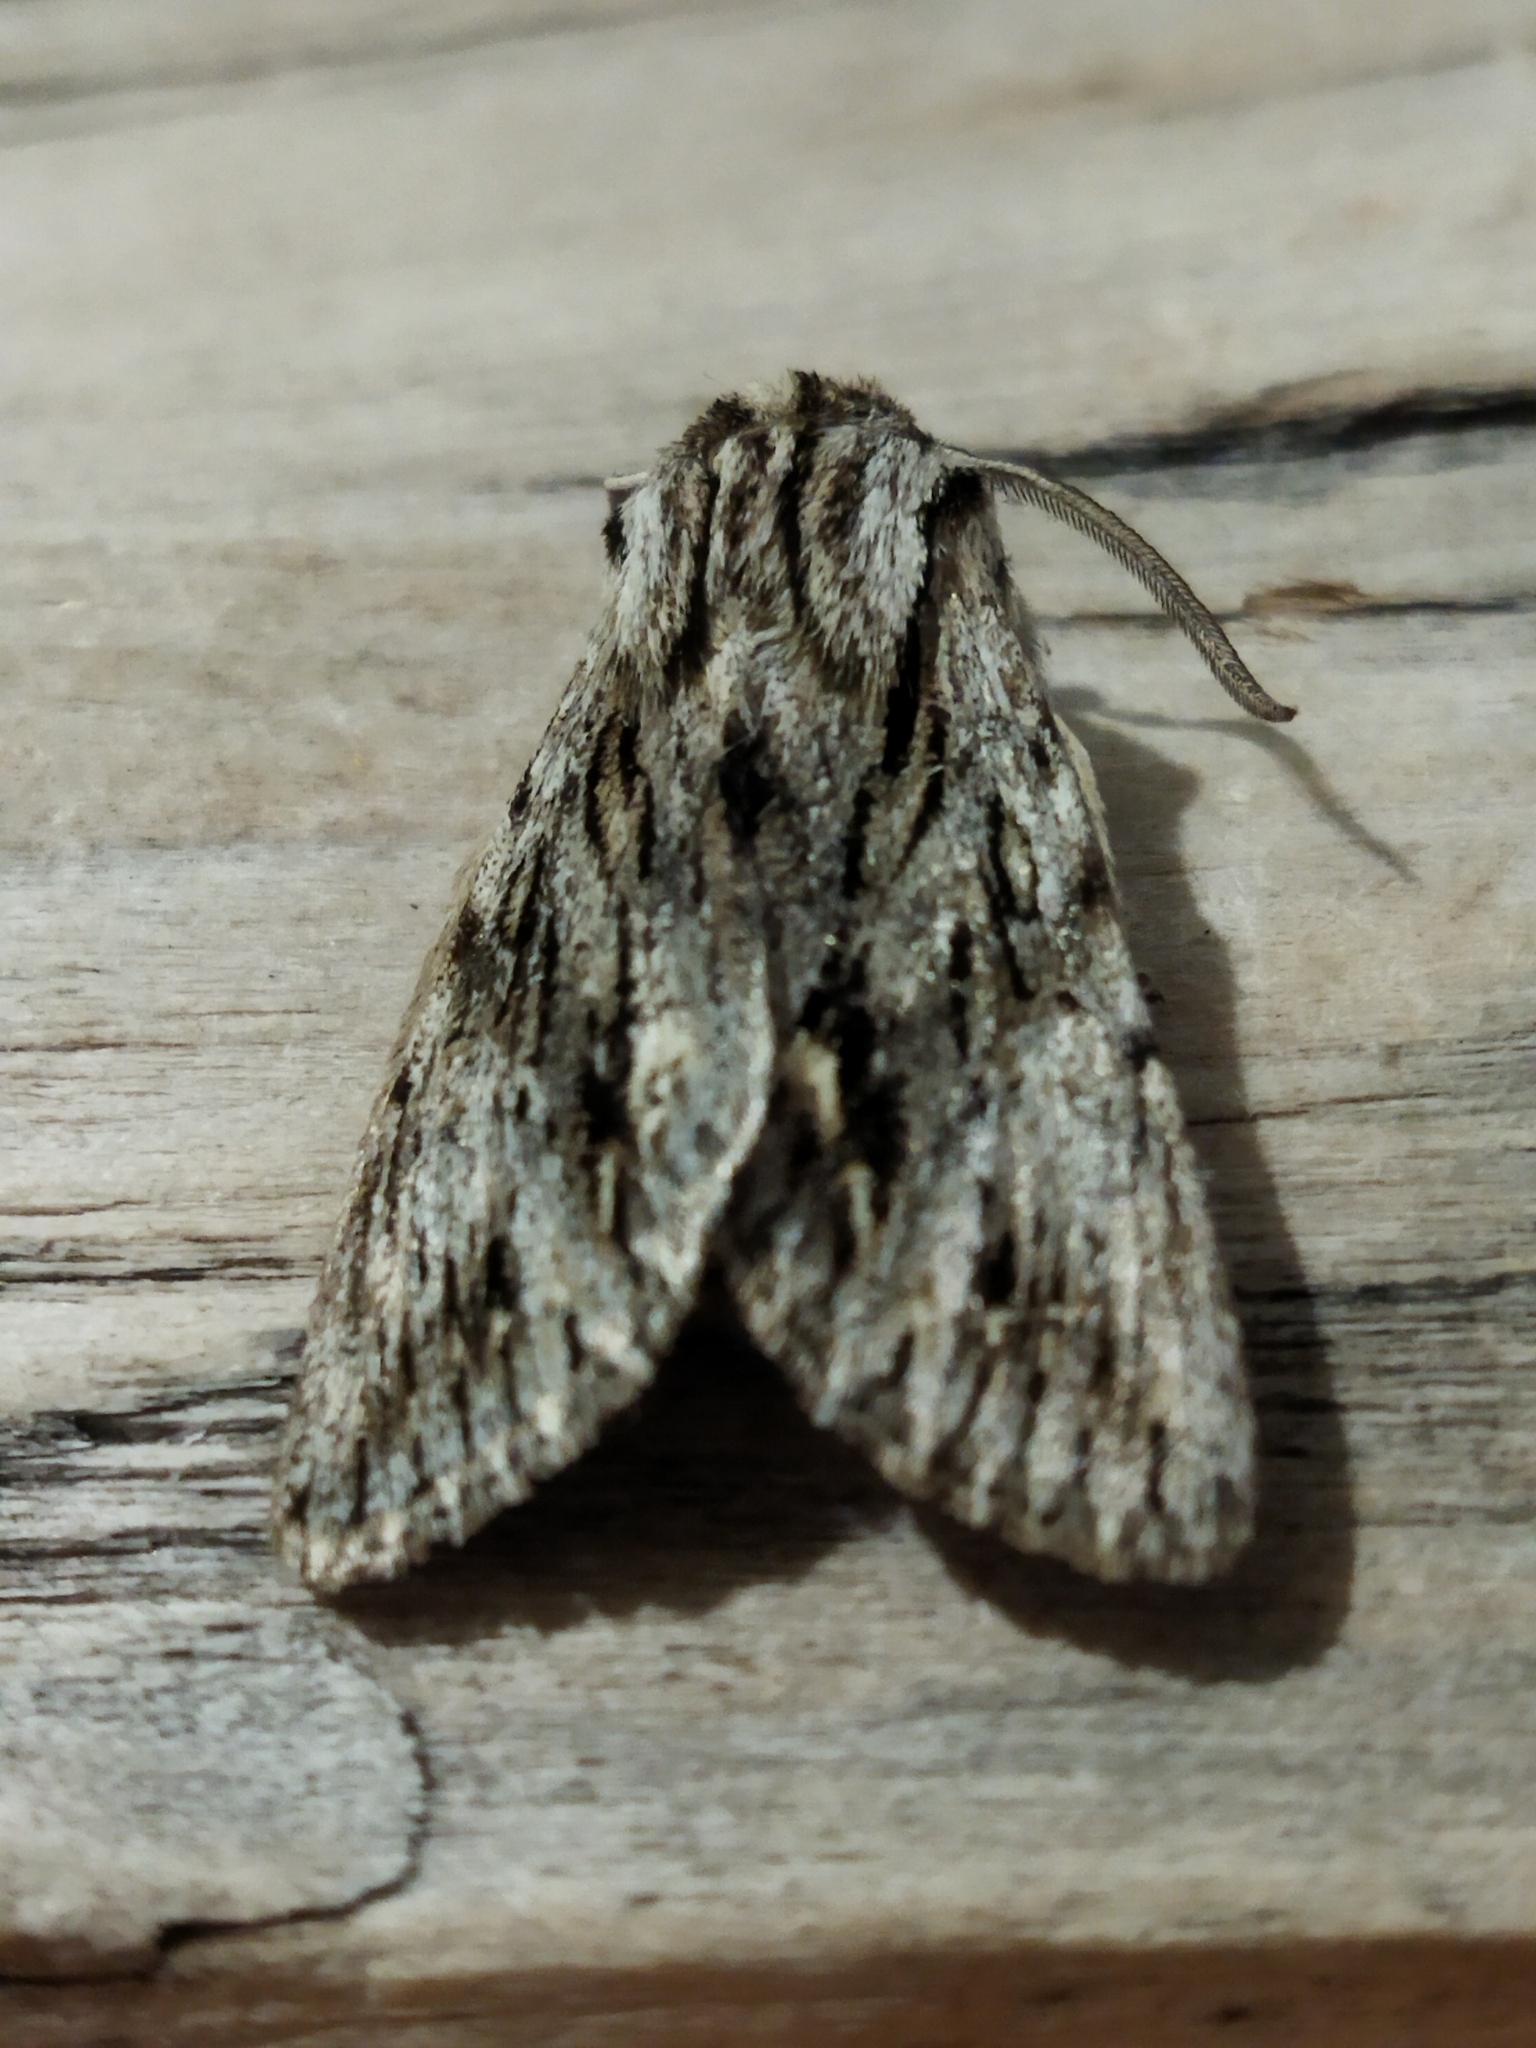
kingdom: Animalia
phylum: Arthropoda
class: Insecta
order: Lepidoptera
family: Noctuidae
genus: Asteroscopus
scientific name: Asteroscopus sphinx
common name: The sprawler
